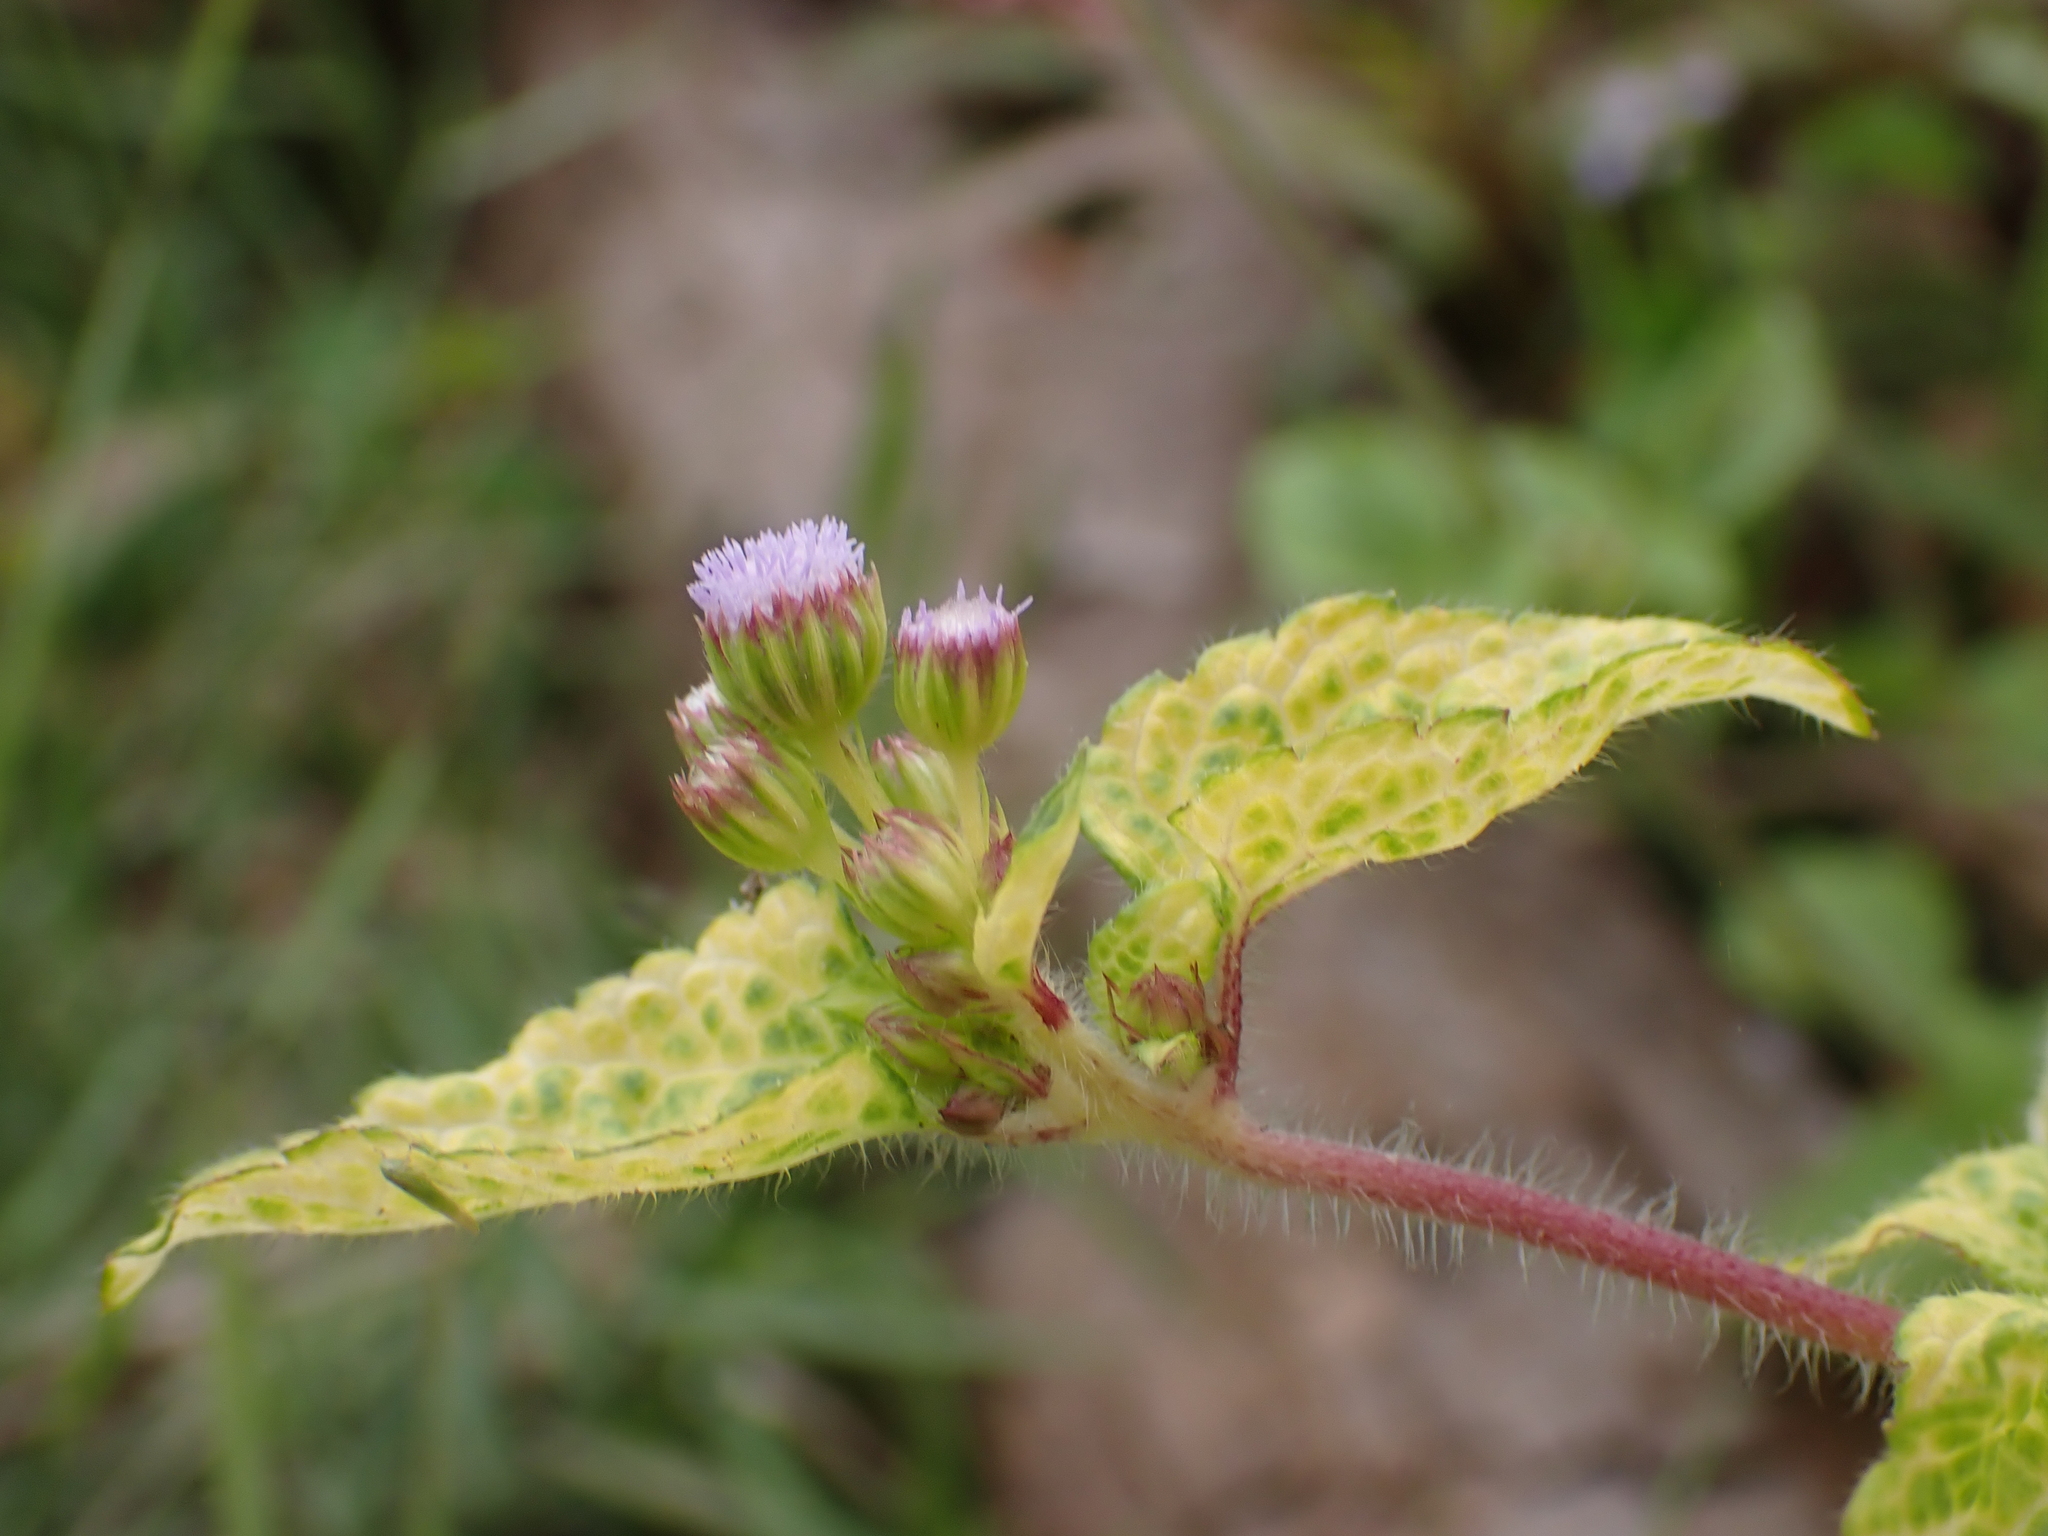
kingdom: Plantae
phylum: Tracheophyta
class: Magnoliopsida
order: Asterales
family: Asteraceae
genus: Ageratum
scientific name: Ageratum conyzoides
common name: Tropical whiteweed
